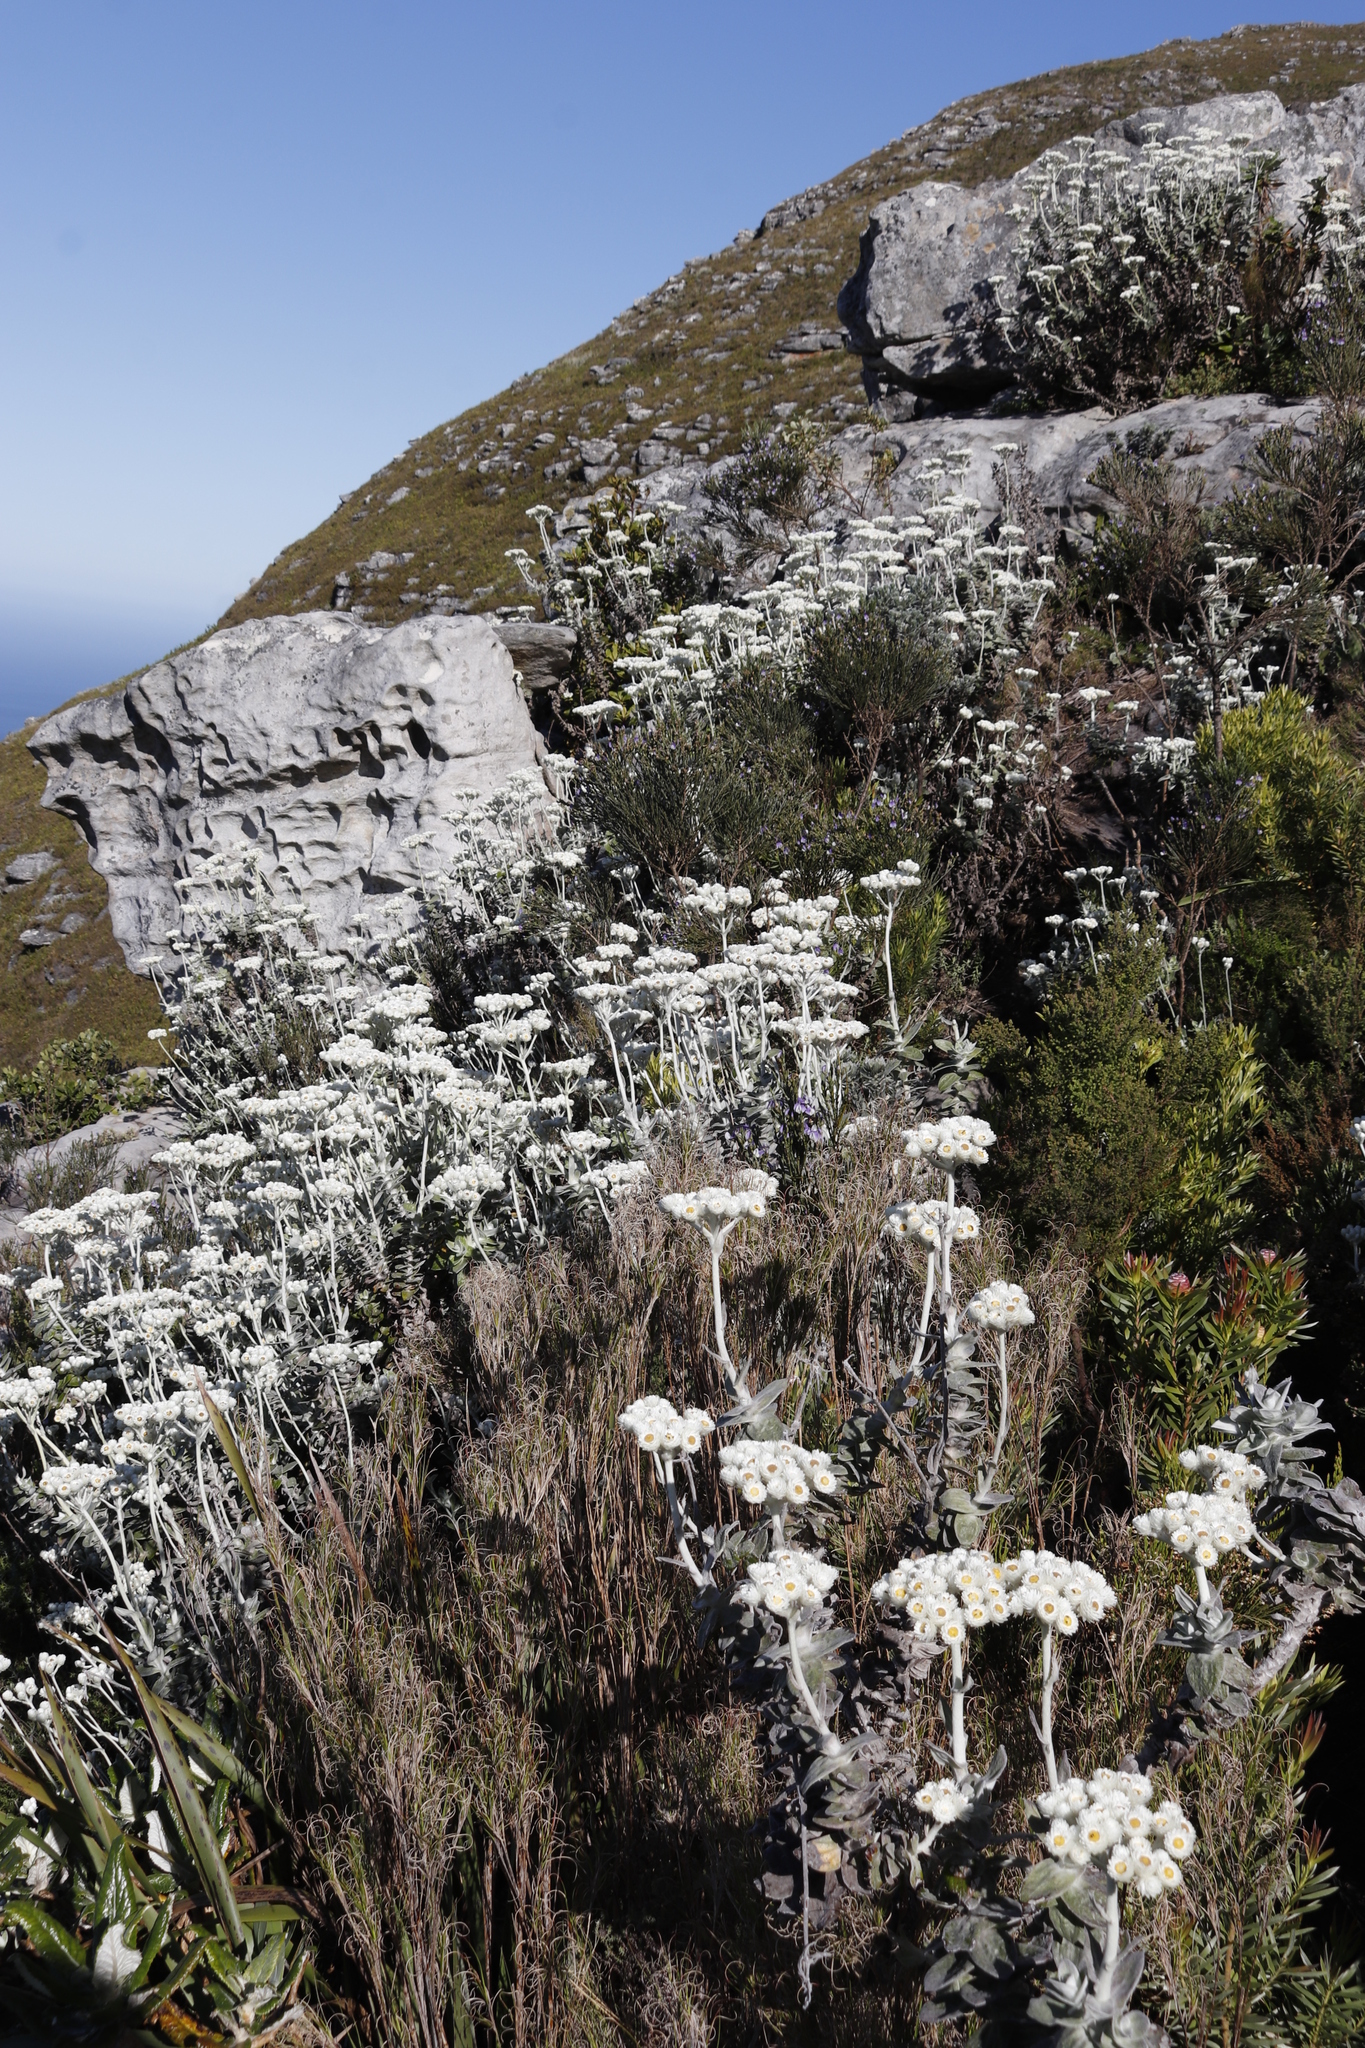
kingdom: Plantae
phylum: Tracheophyta
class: Magnoliopsida
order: Asterales
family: Asteraceae
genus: Helichrysum
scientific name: Helichrysum fruticans
